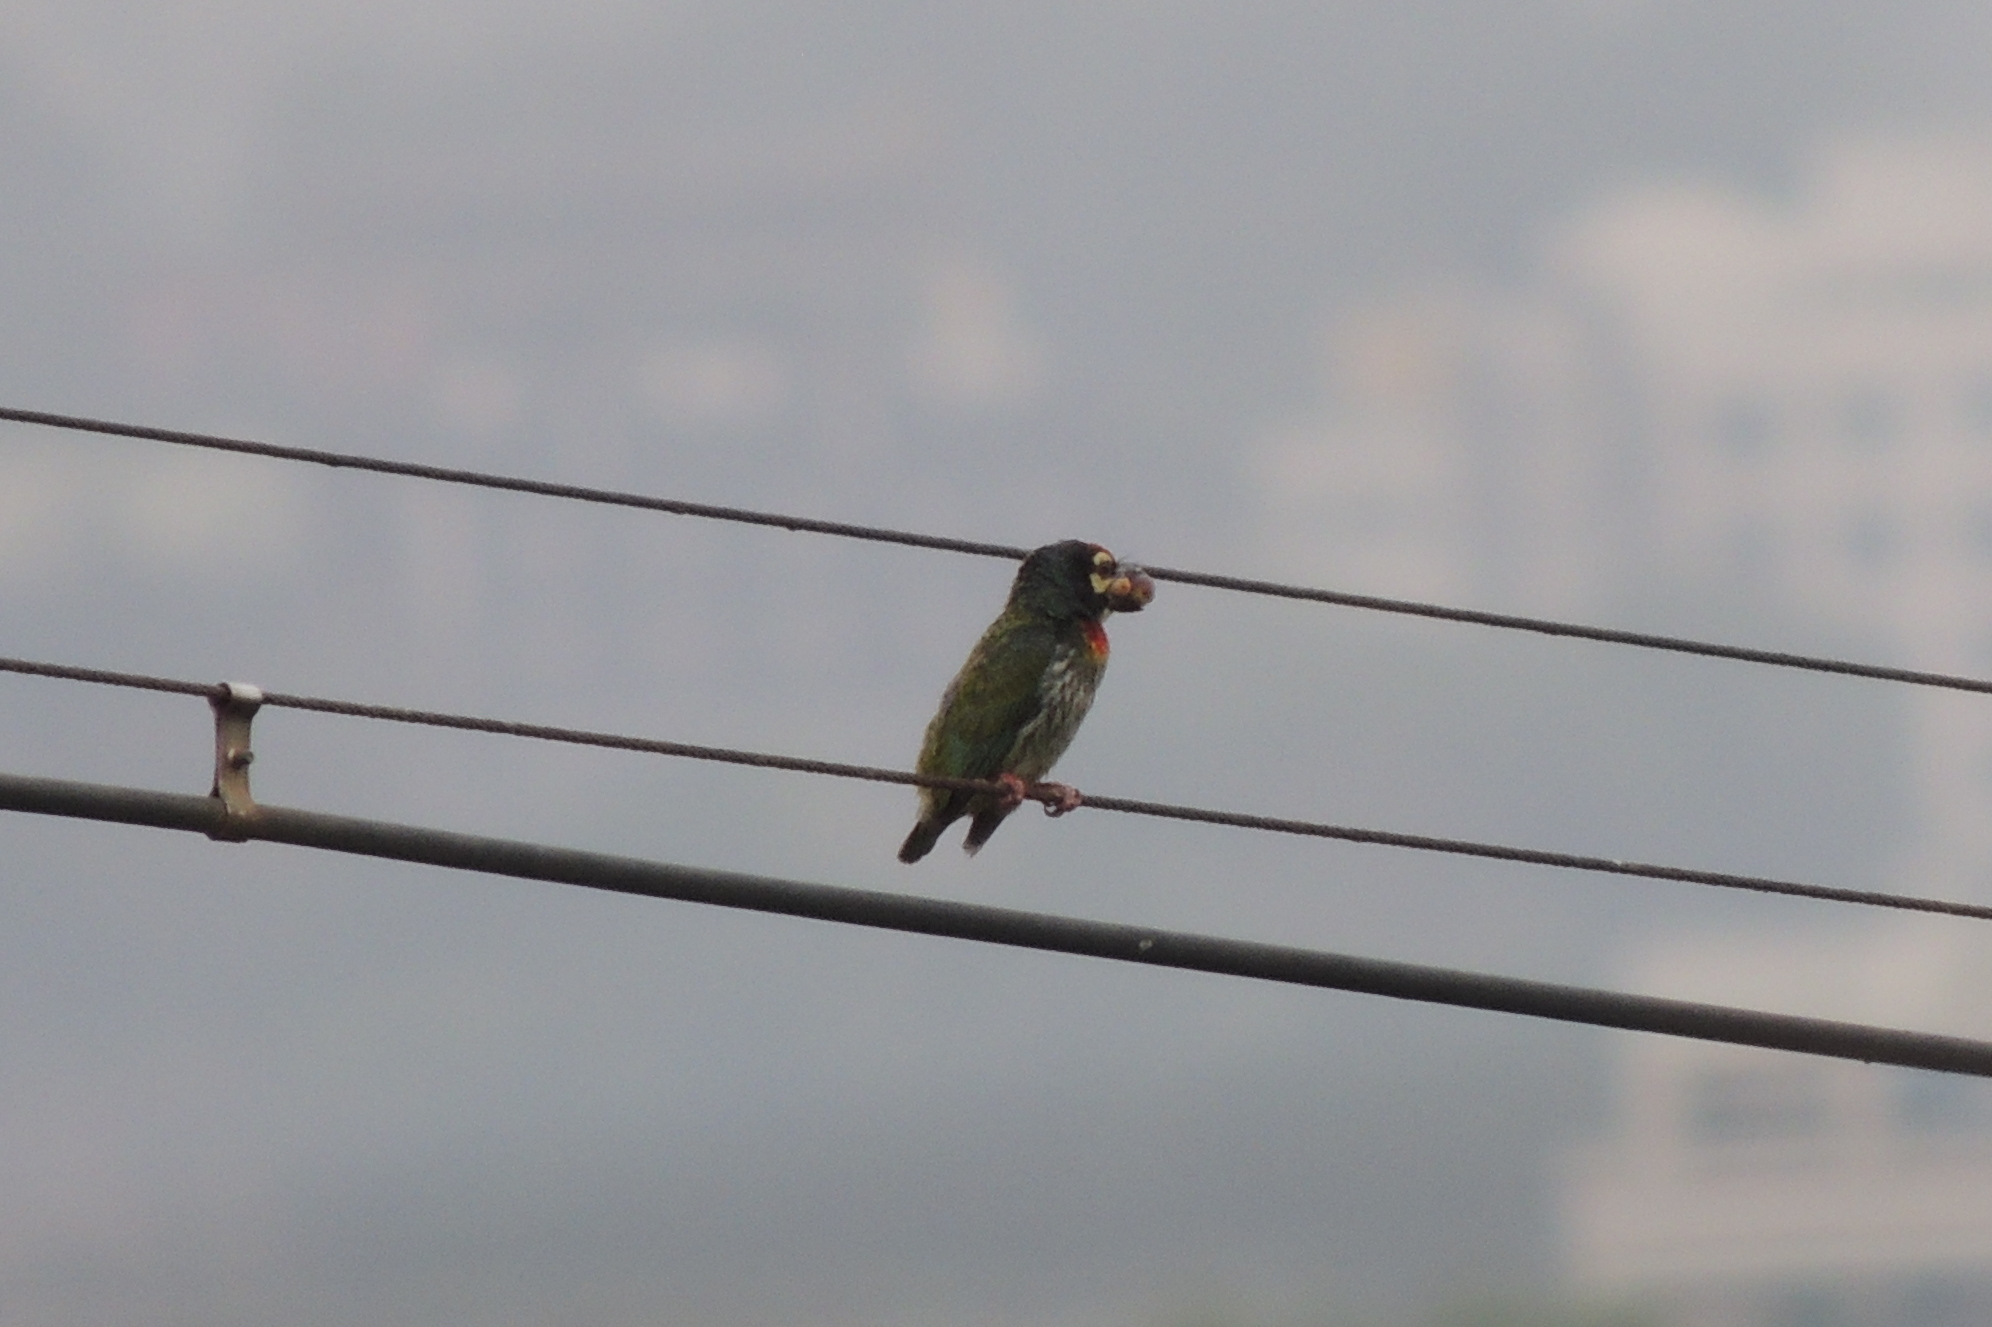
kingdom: Animalia
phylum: Chordata
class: Aves
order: Piciformes
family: Megalaimidae
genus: Psilopogon
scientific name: Psilopogon haemacephalus
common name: Coppersmith barbet
